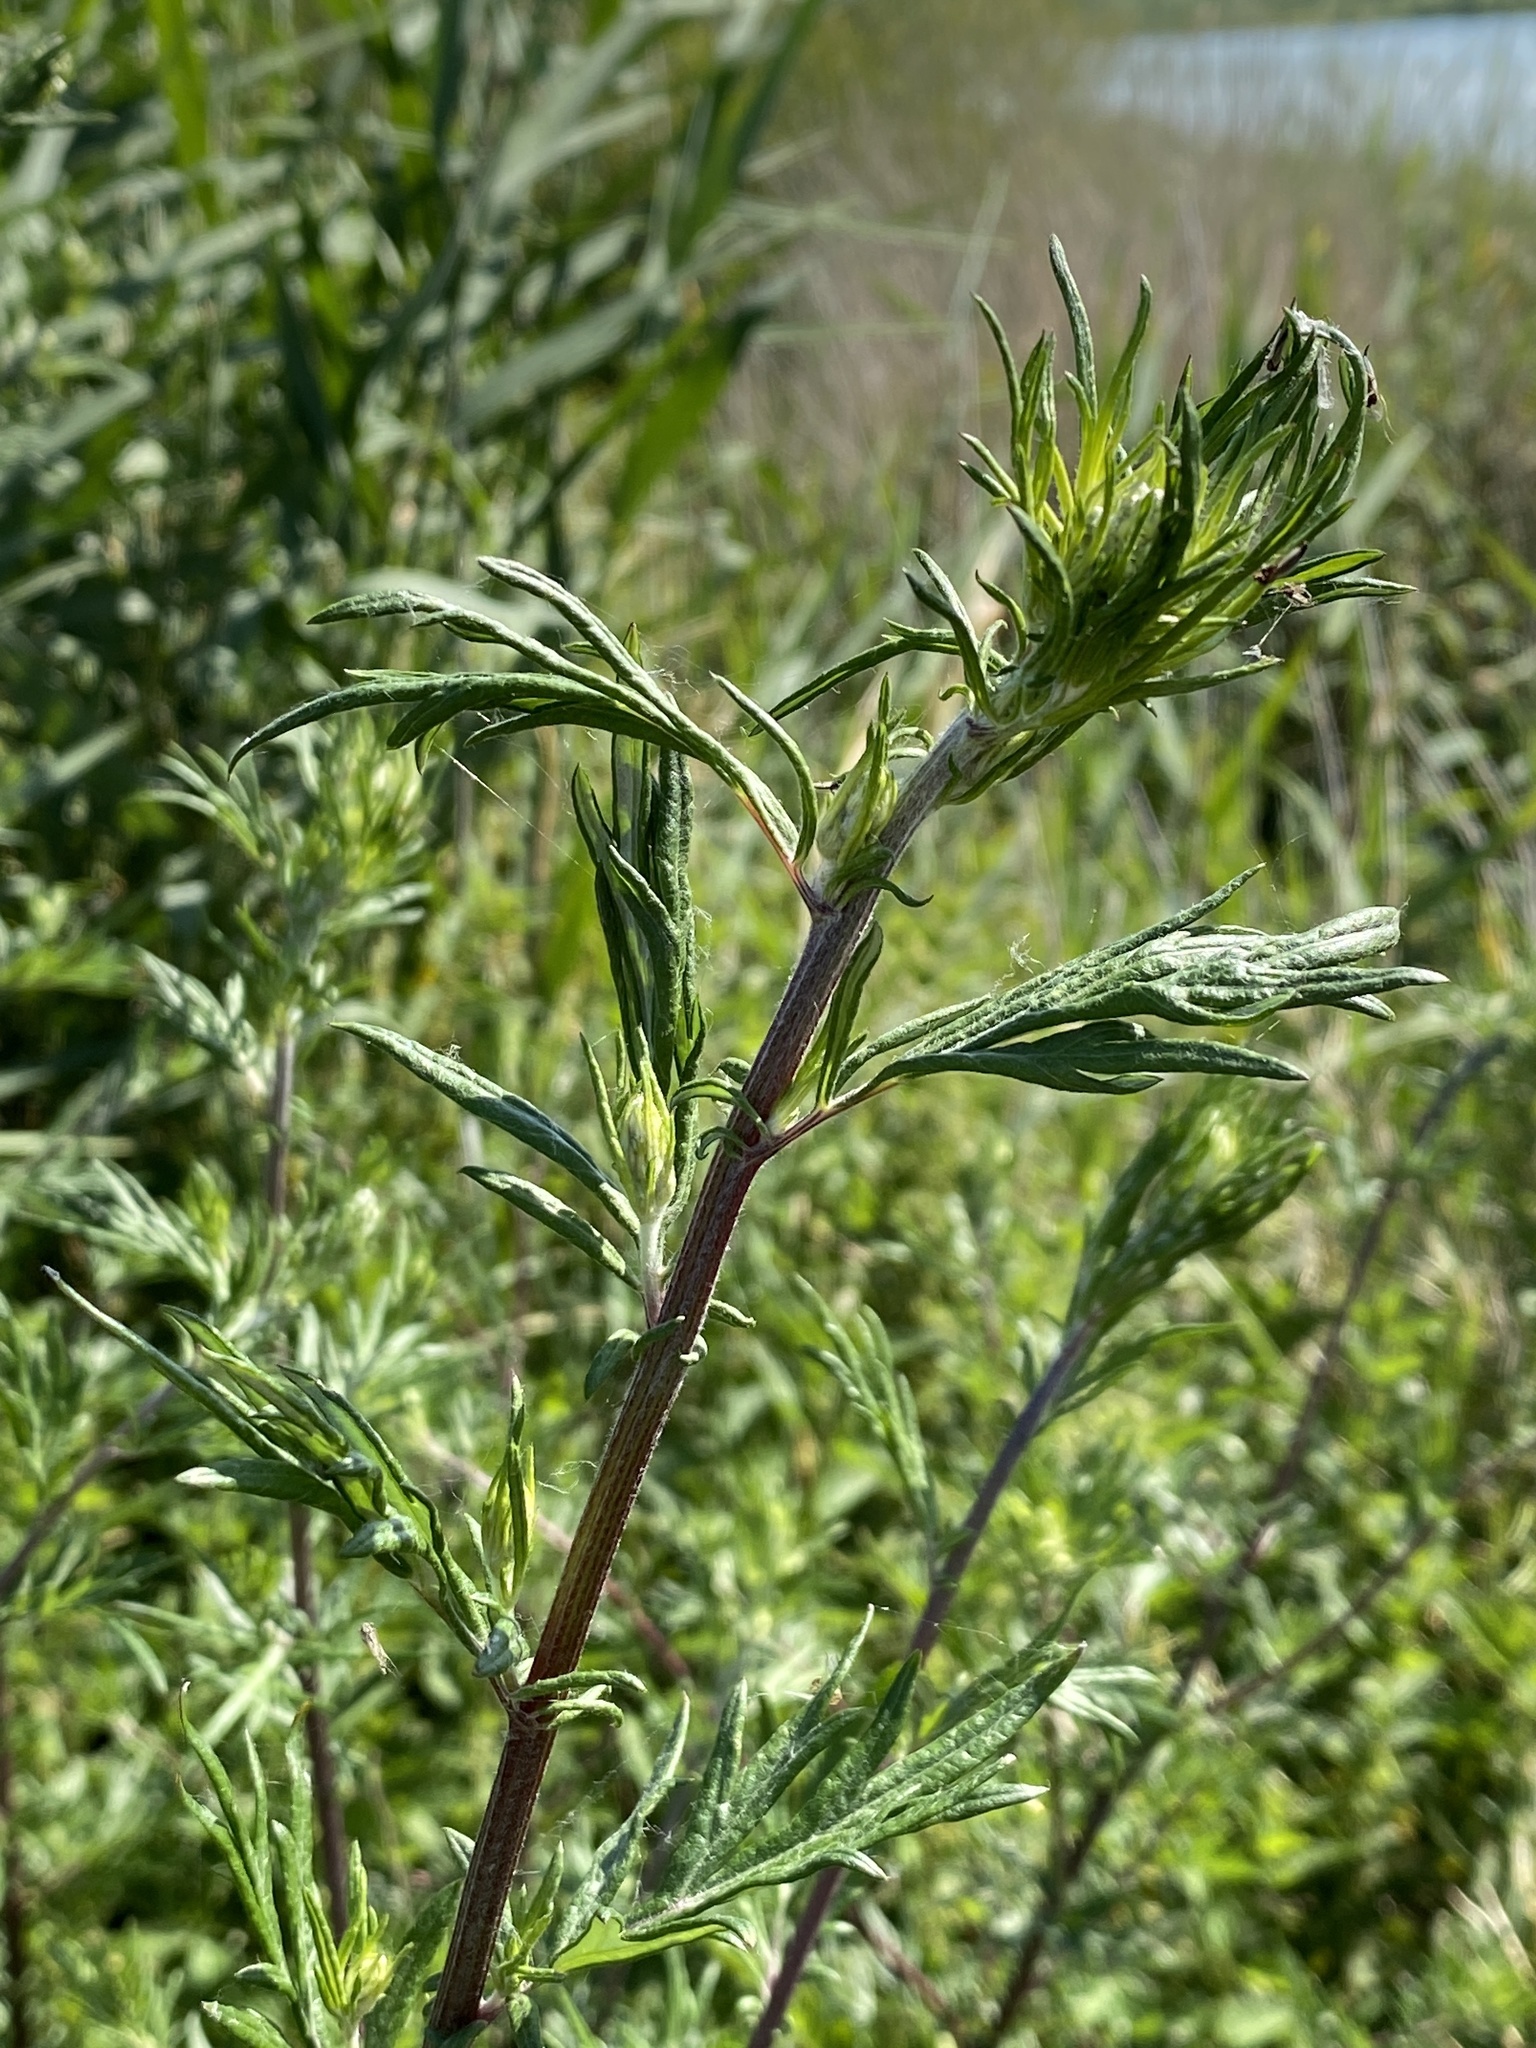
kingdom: Plantae
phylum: Tracheophyta
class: Magnoliopsida
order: Asterales
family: Asteraceae
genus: Artemisia
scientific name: Artemisia vulgaris
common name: Mugwort
